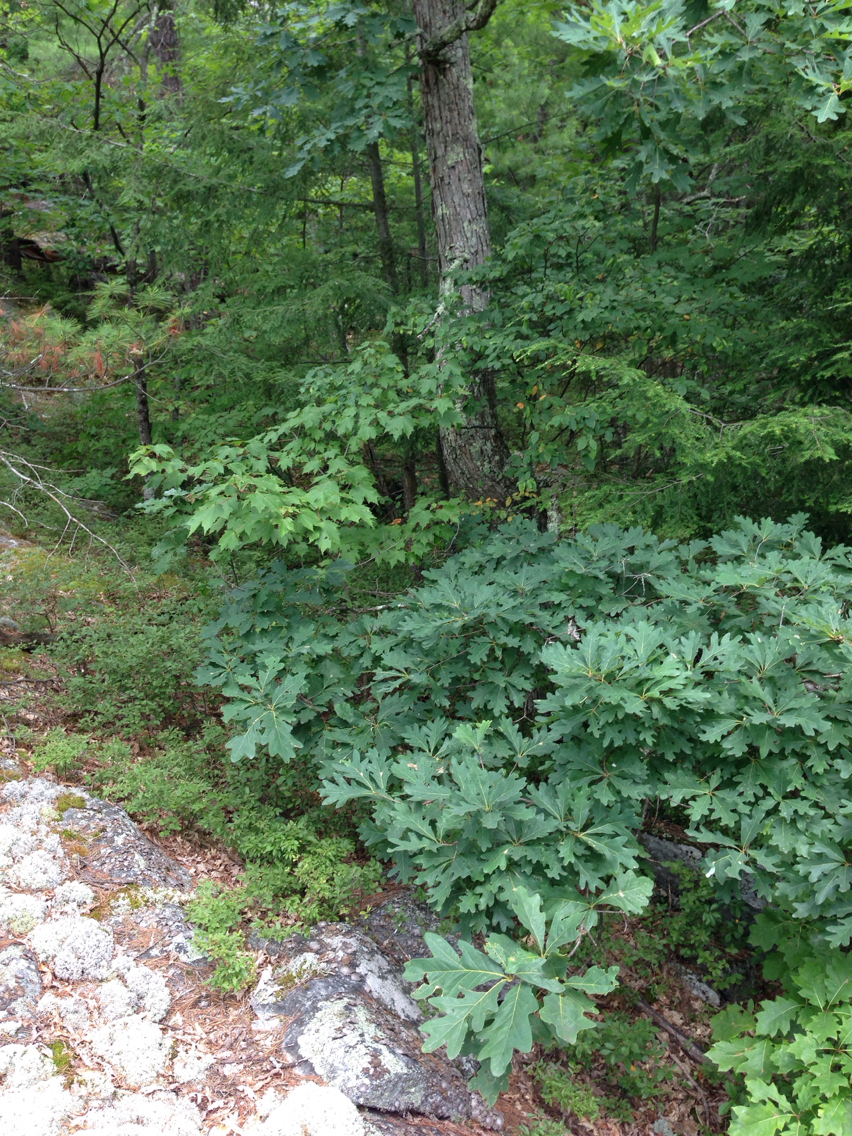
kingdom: Plantae
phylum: Tracheophyta
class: Magnoliopsida
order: Fagales
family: Fagaceae
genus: Quercus
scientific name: Quercus alba
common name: White oak
